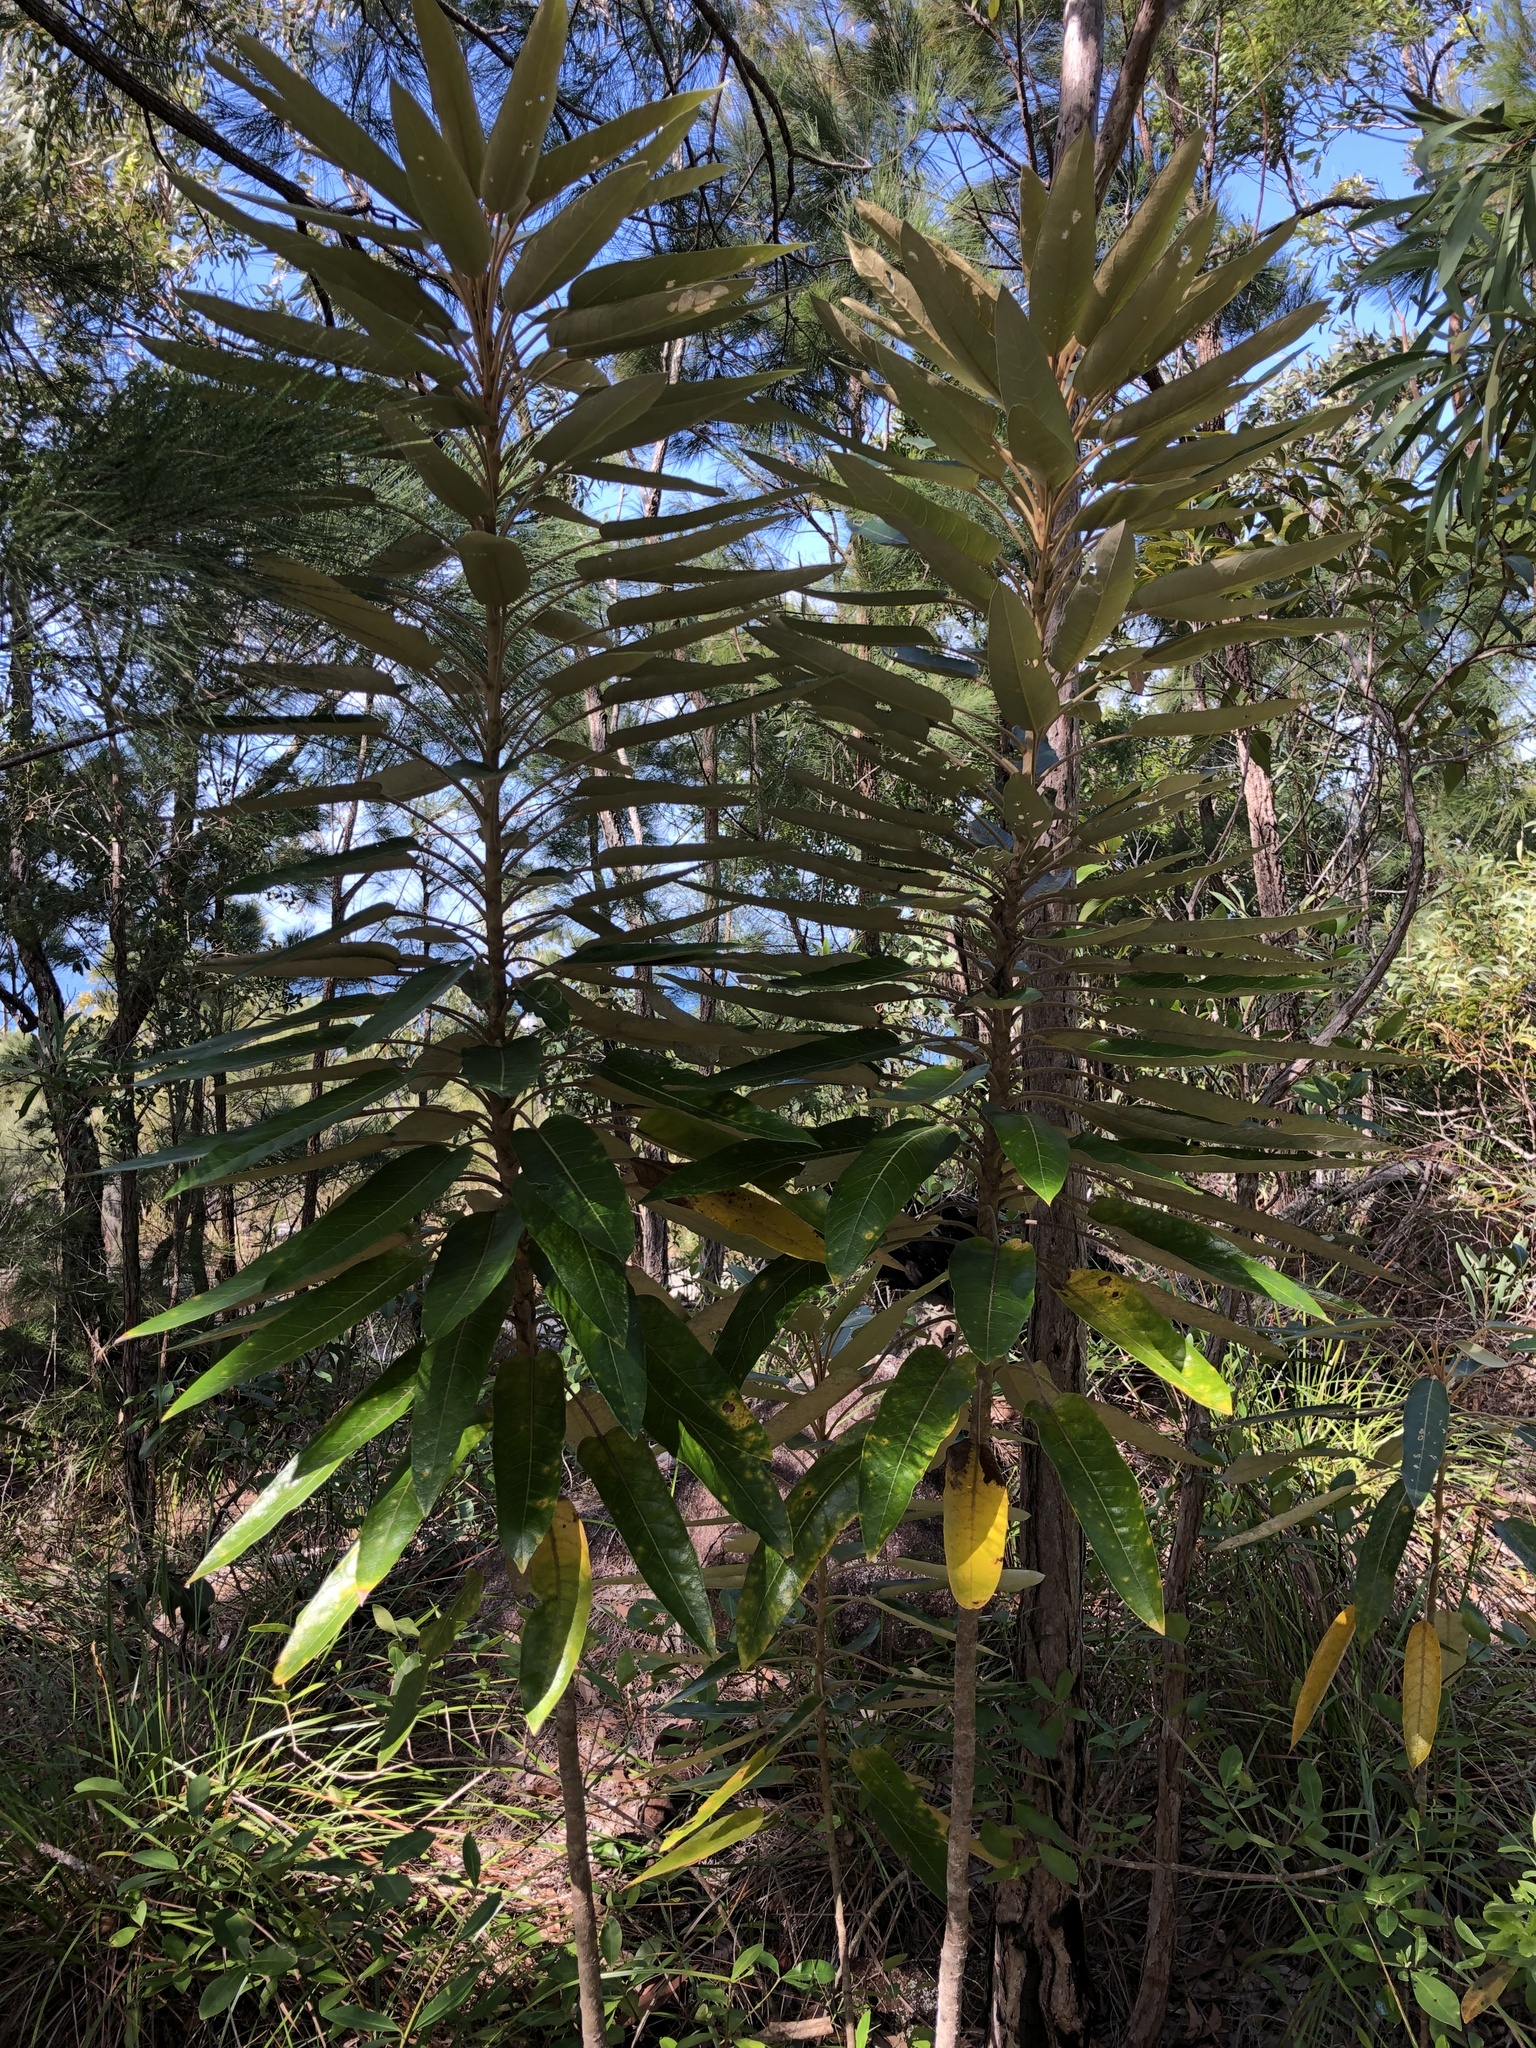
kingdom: Plantae
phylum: Tracheophyta
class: Magnoliopsida
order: Apiales
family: Araliaceae
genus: Astrotricha
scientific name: Astrotricha pterocarpa
